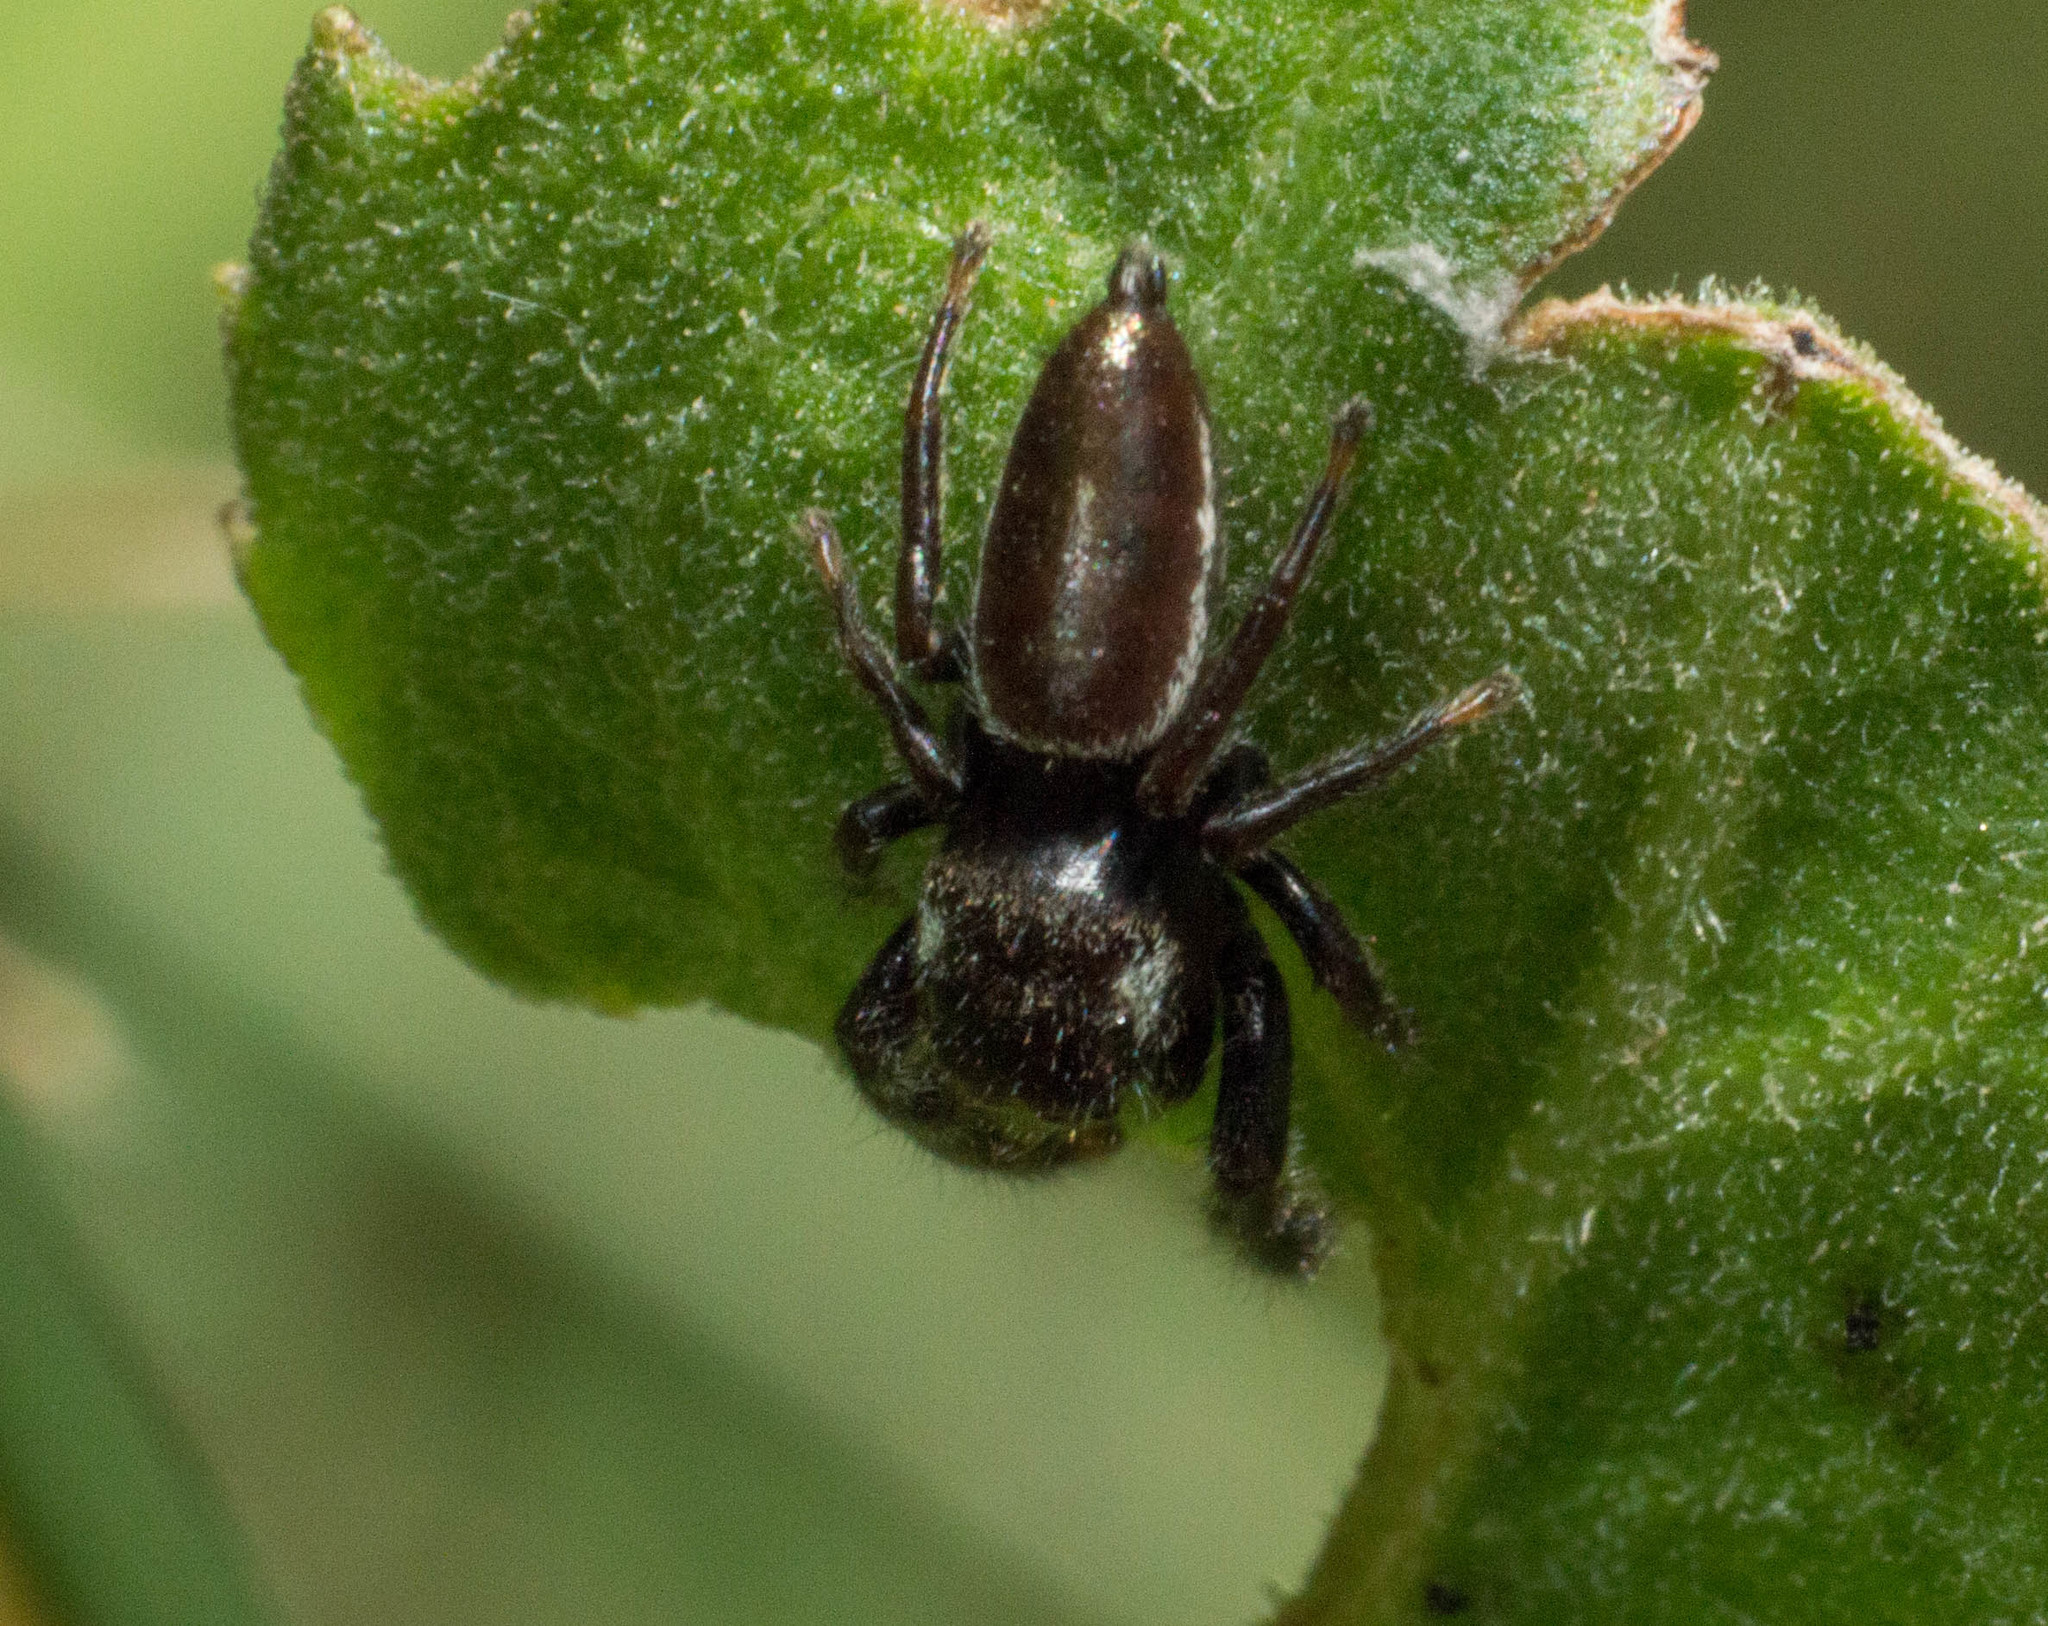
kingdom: Animalia
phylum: Arthropoda
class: Arachnida
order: Araneae
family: Salticidae
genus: Dendryphantes
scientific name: Dendryphantes mordax
